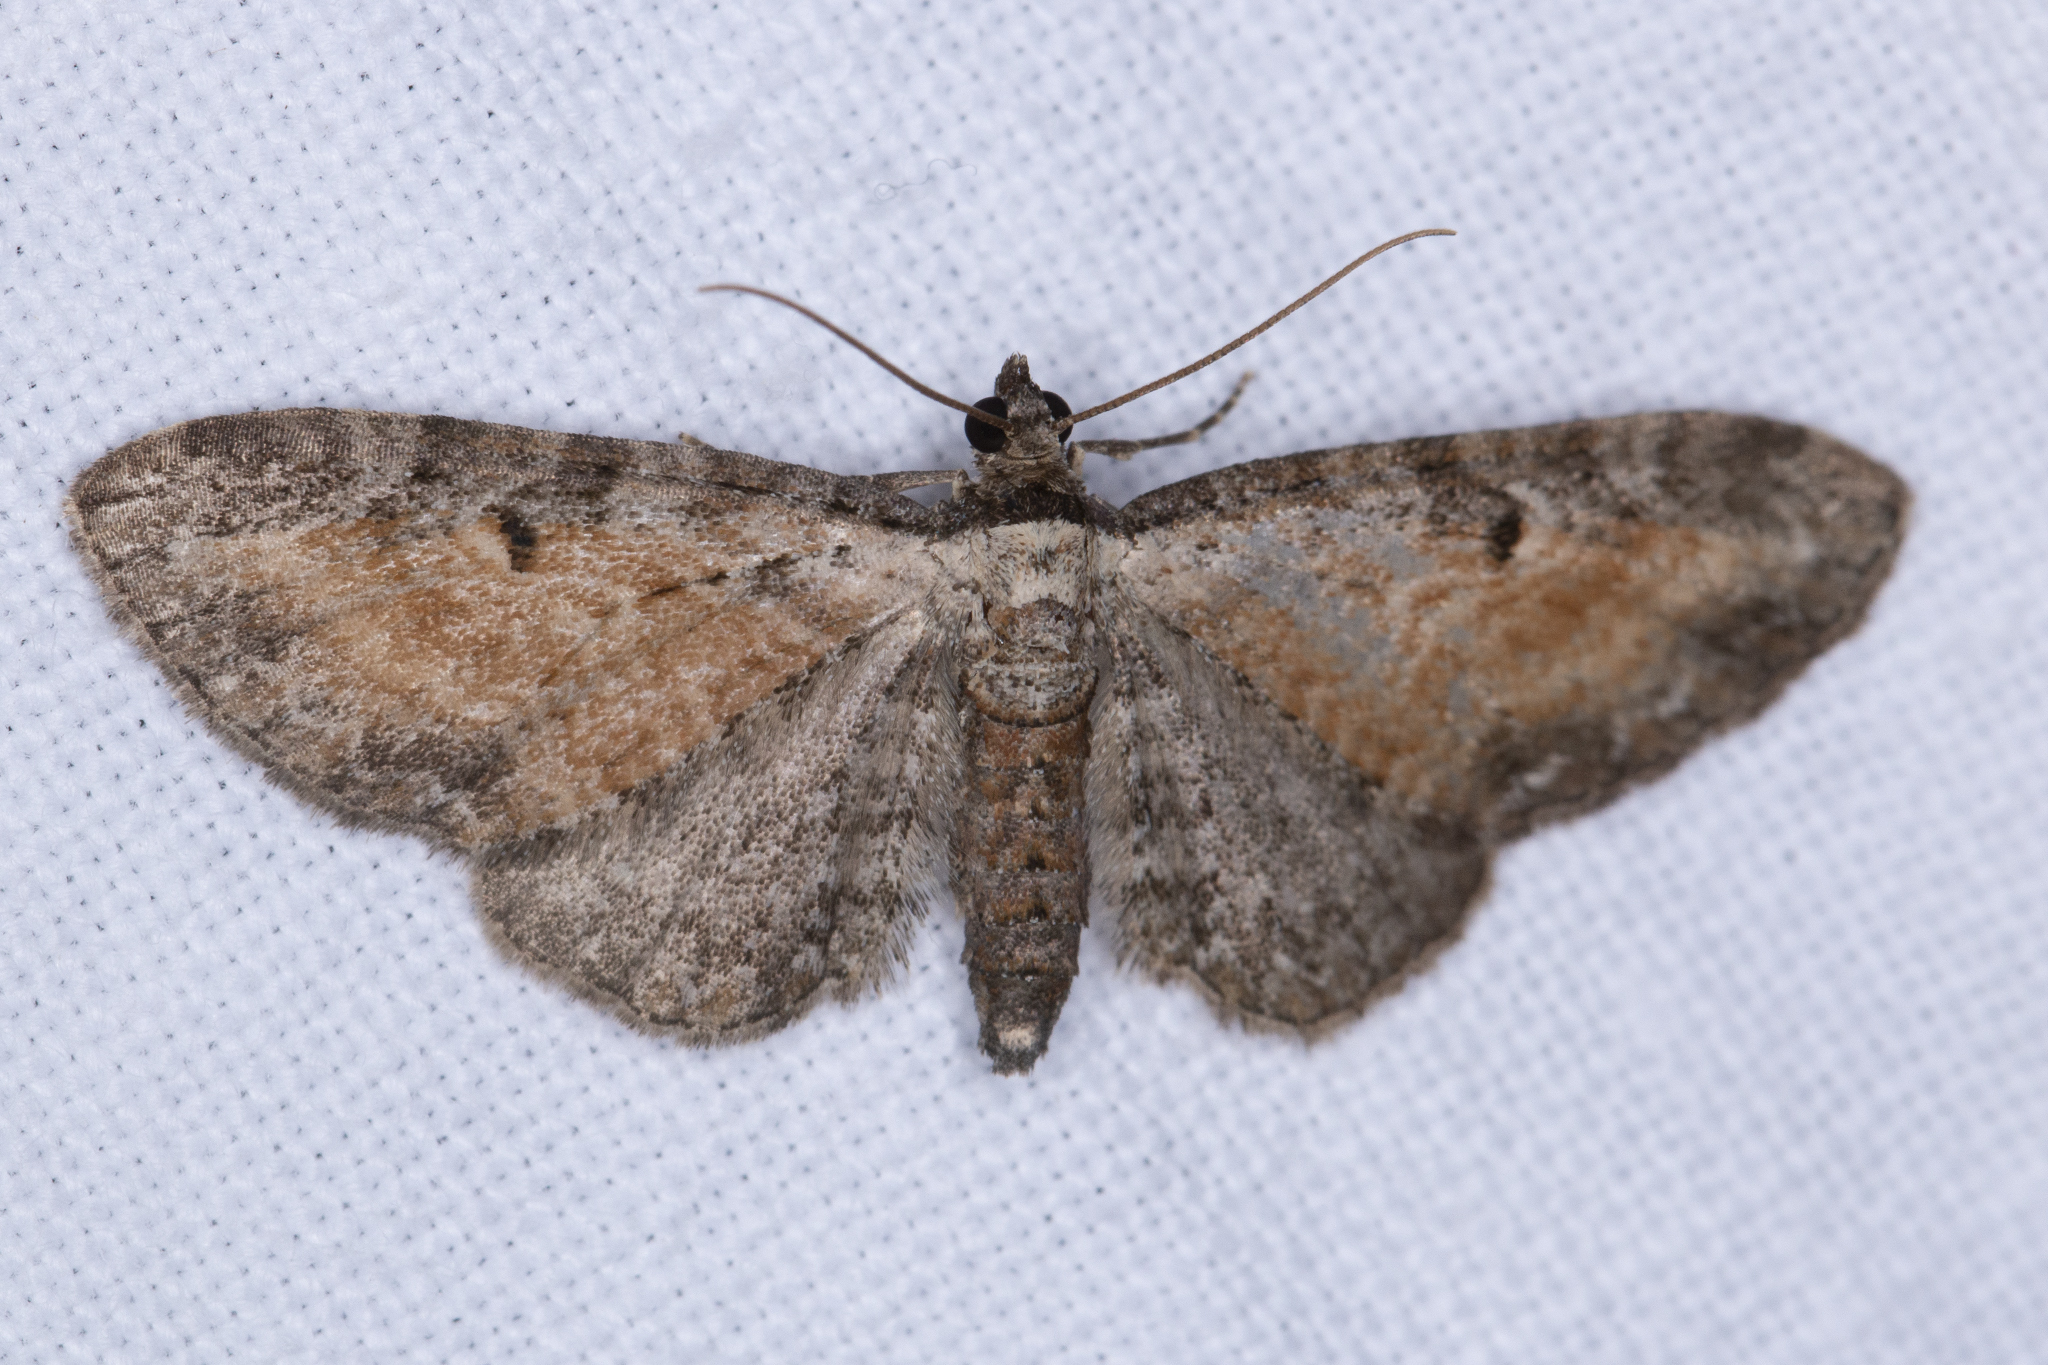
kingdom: Animalia
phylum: Arthropoda
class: Insecta
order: Lepidoptera
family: Geometridae
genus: Eupithecia
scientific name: Eupithecia icterata
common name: Tawny speckled pug
